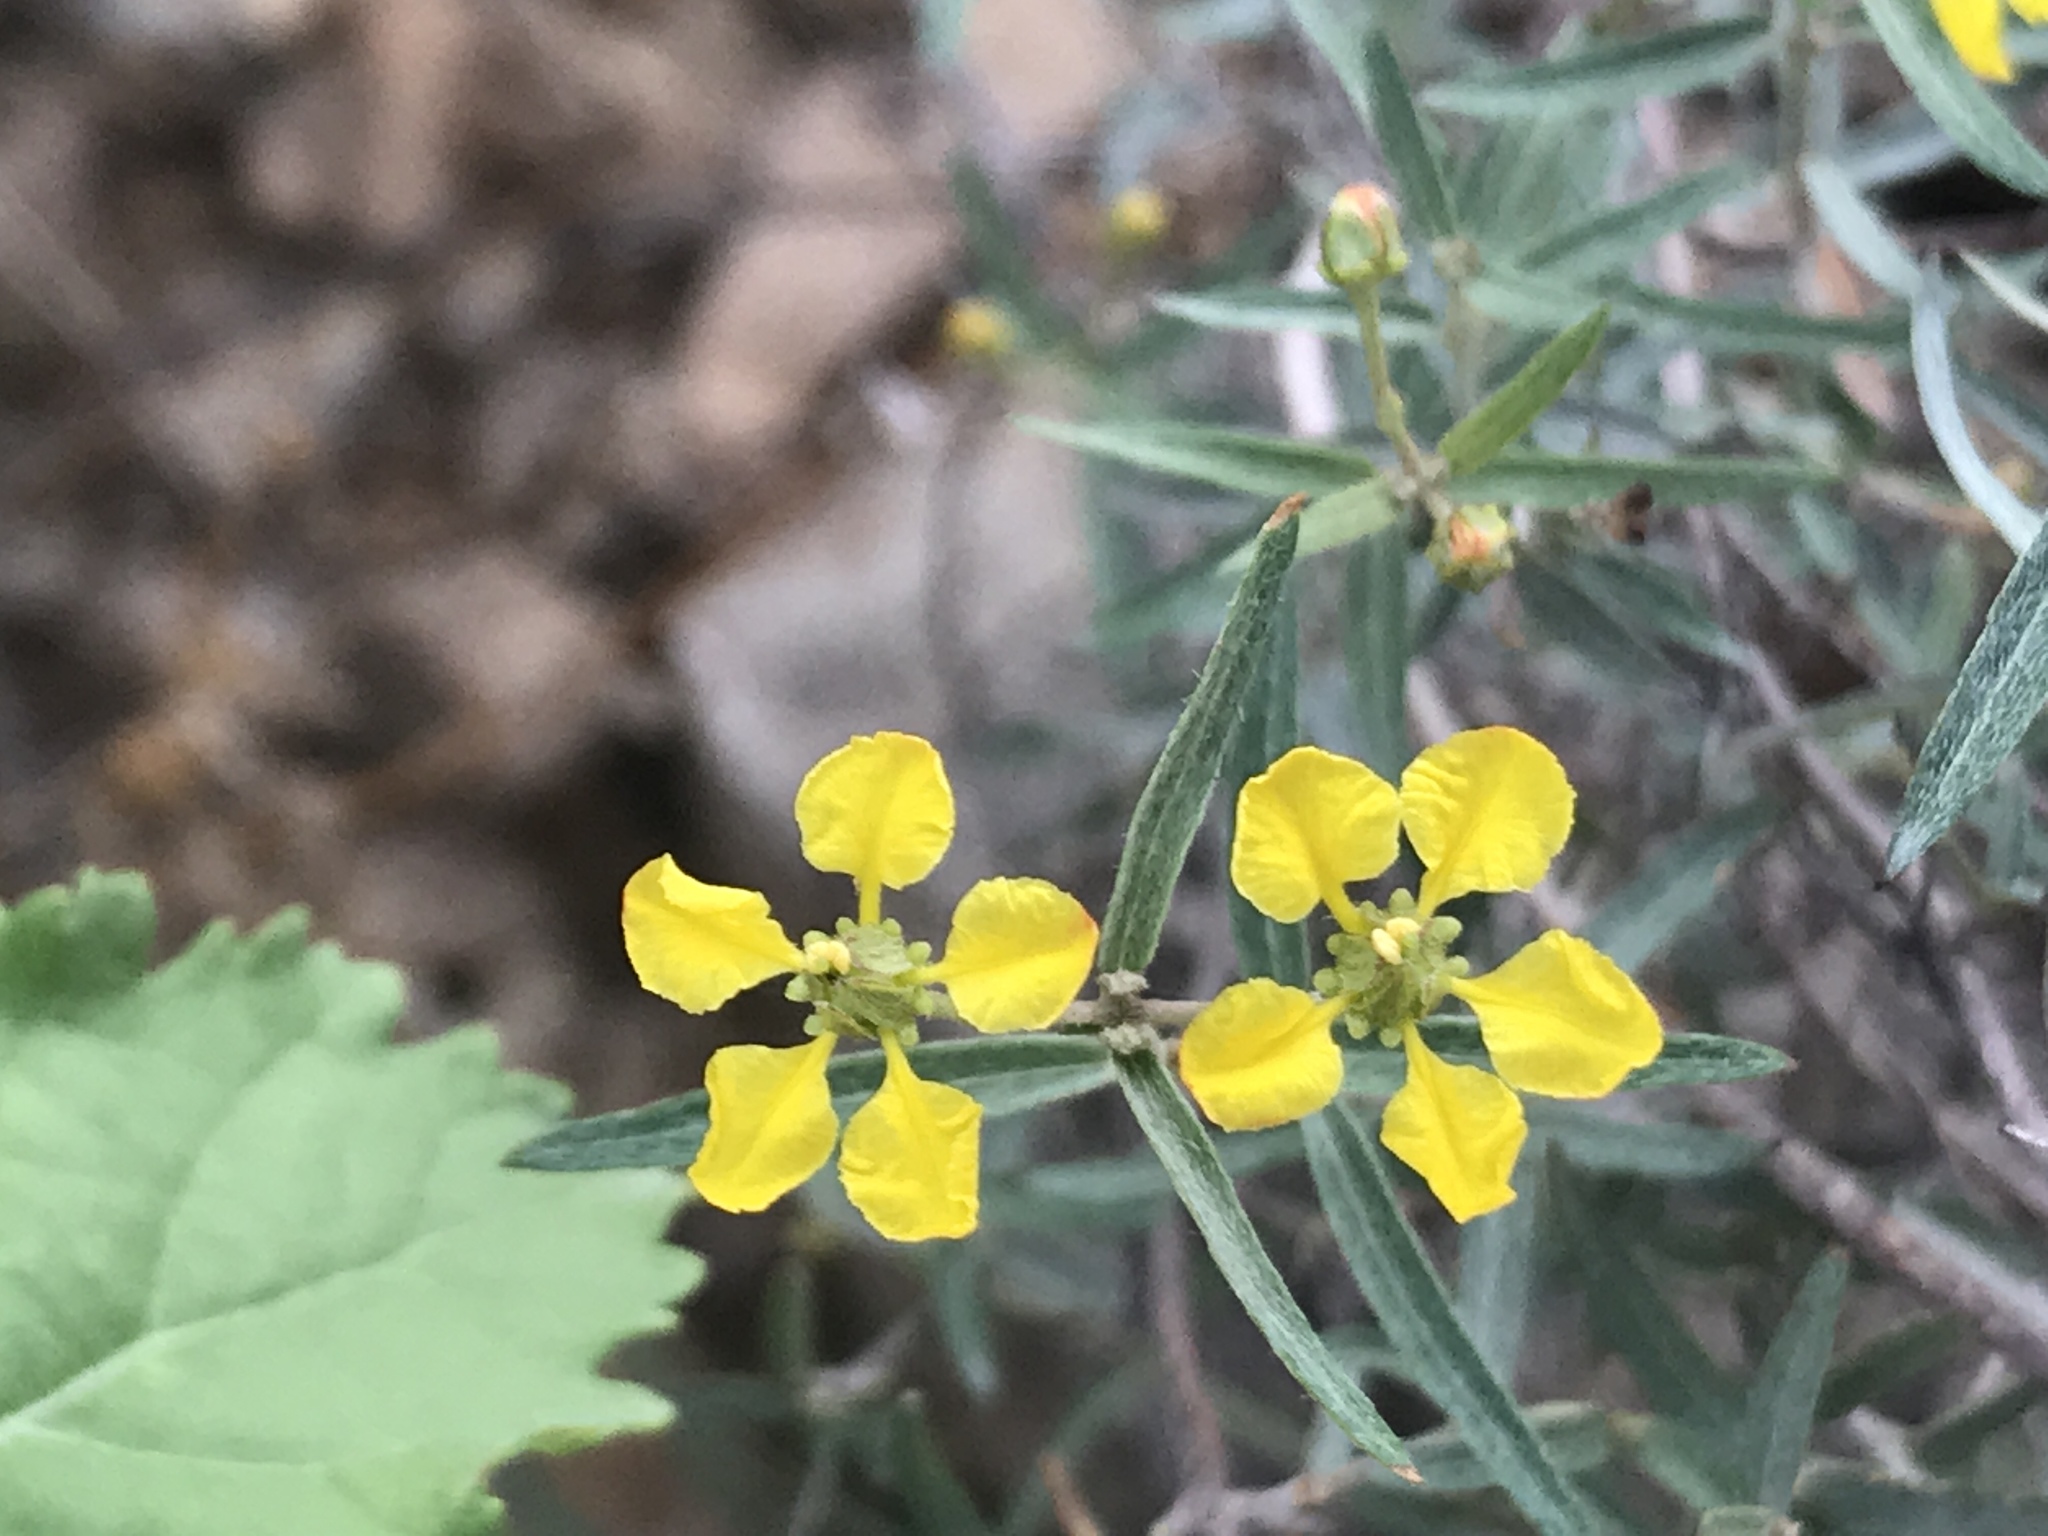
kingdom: Plantae
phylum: Tracheophyta
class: Magnoliopsida
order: Malpighiales
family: Malpighiaceae
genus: Cottsia
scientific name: Cottsia gracilis
